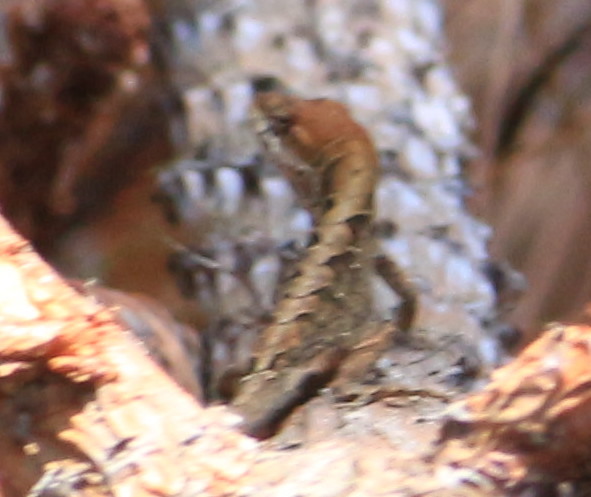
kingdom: Animalia
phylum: Chordata
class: Squamata
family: Dactyloidae
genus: Anolis
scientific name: Anolis sagrei
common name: Brown anole
